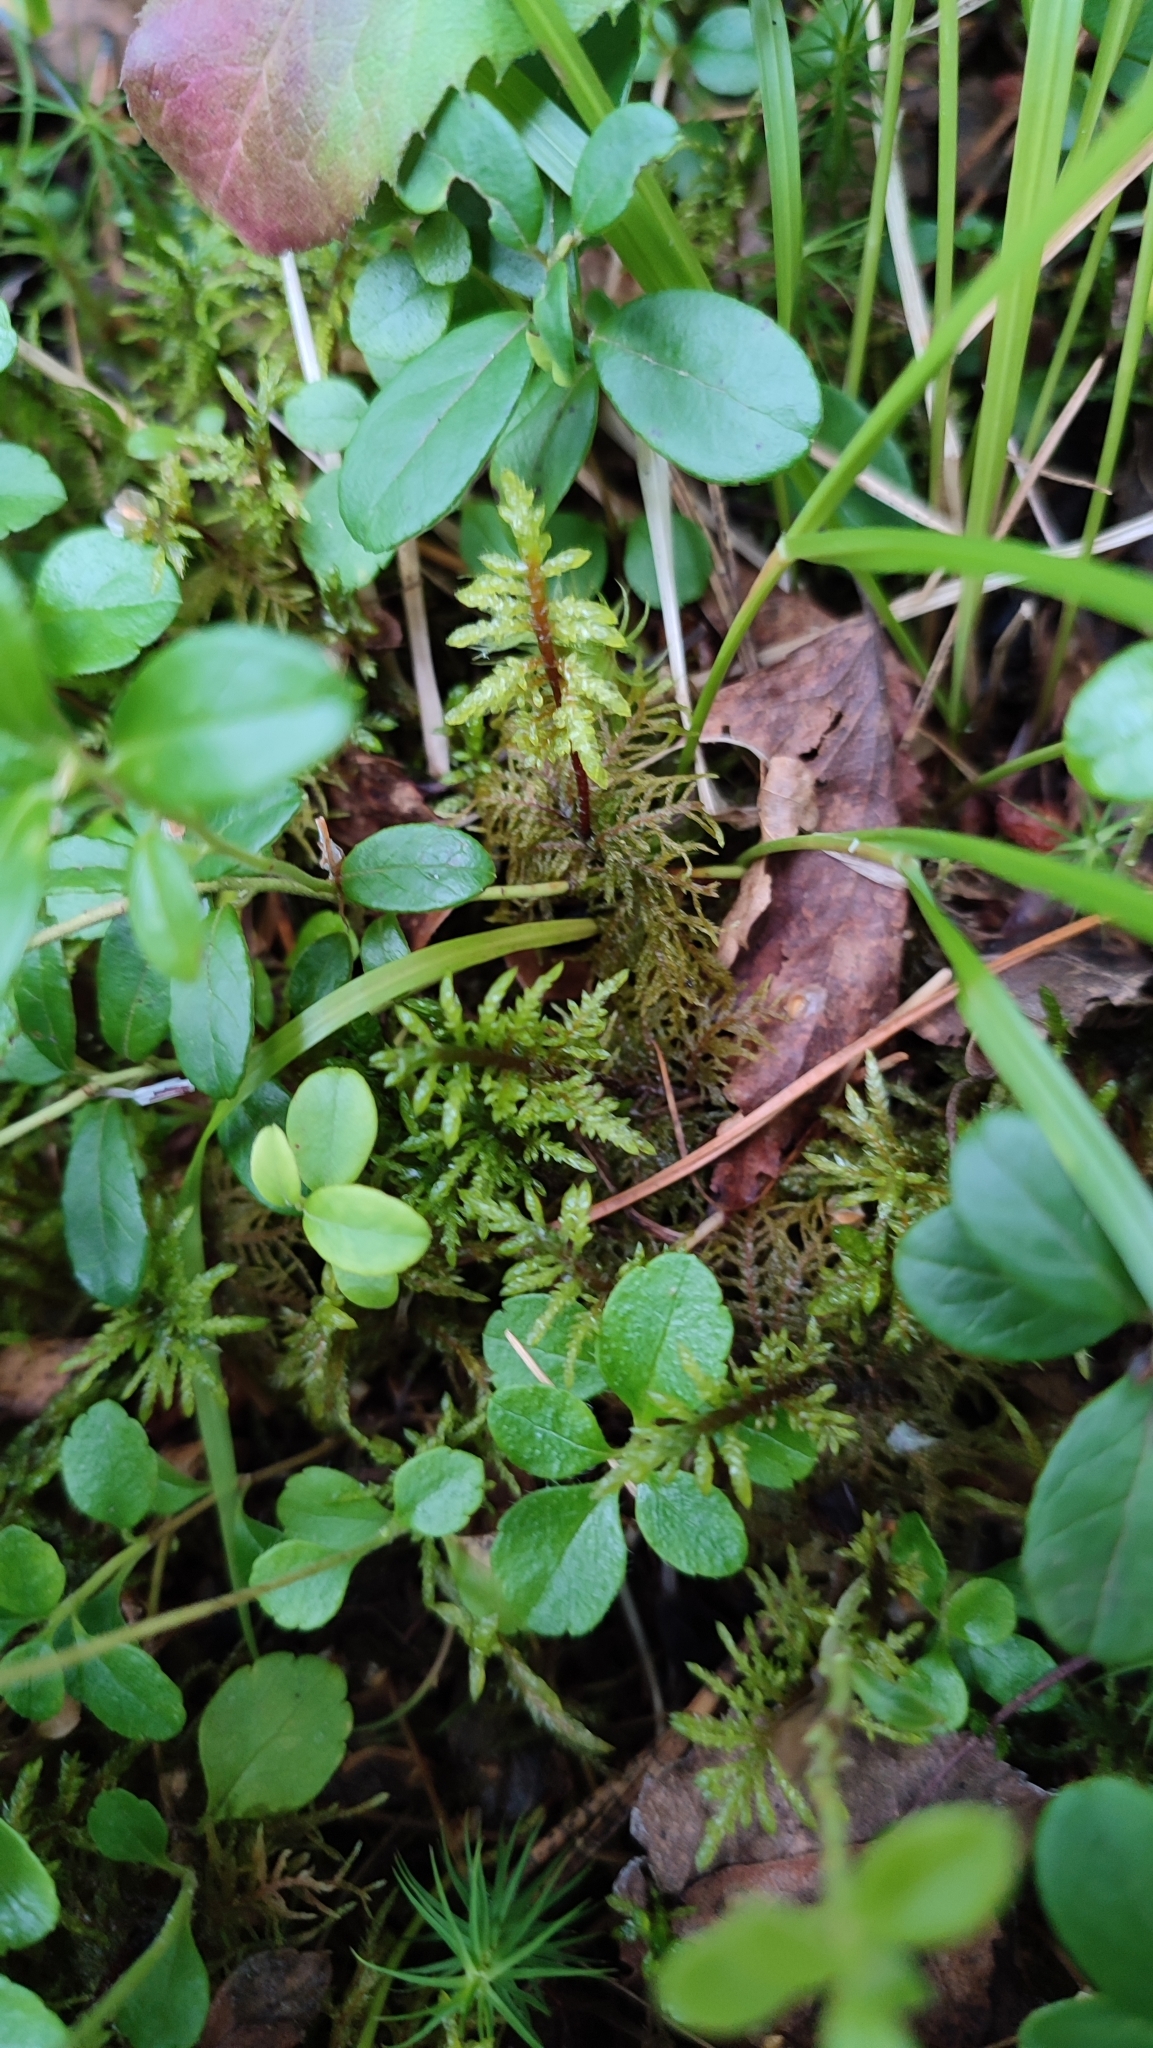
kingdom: Plantae
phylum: Bryophyta
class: Bryopsida
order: Hypnales
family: Hylocomiaceae
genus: Hylocomium
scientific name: Hylocomium splendens
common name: Stairstep moss
